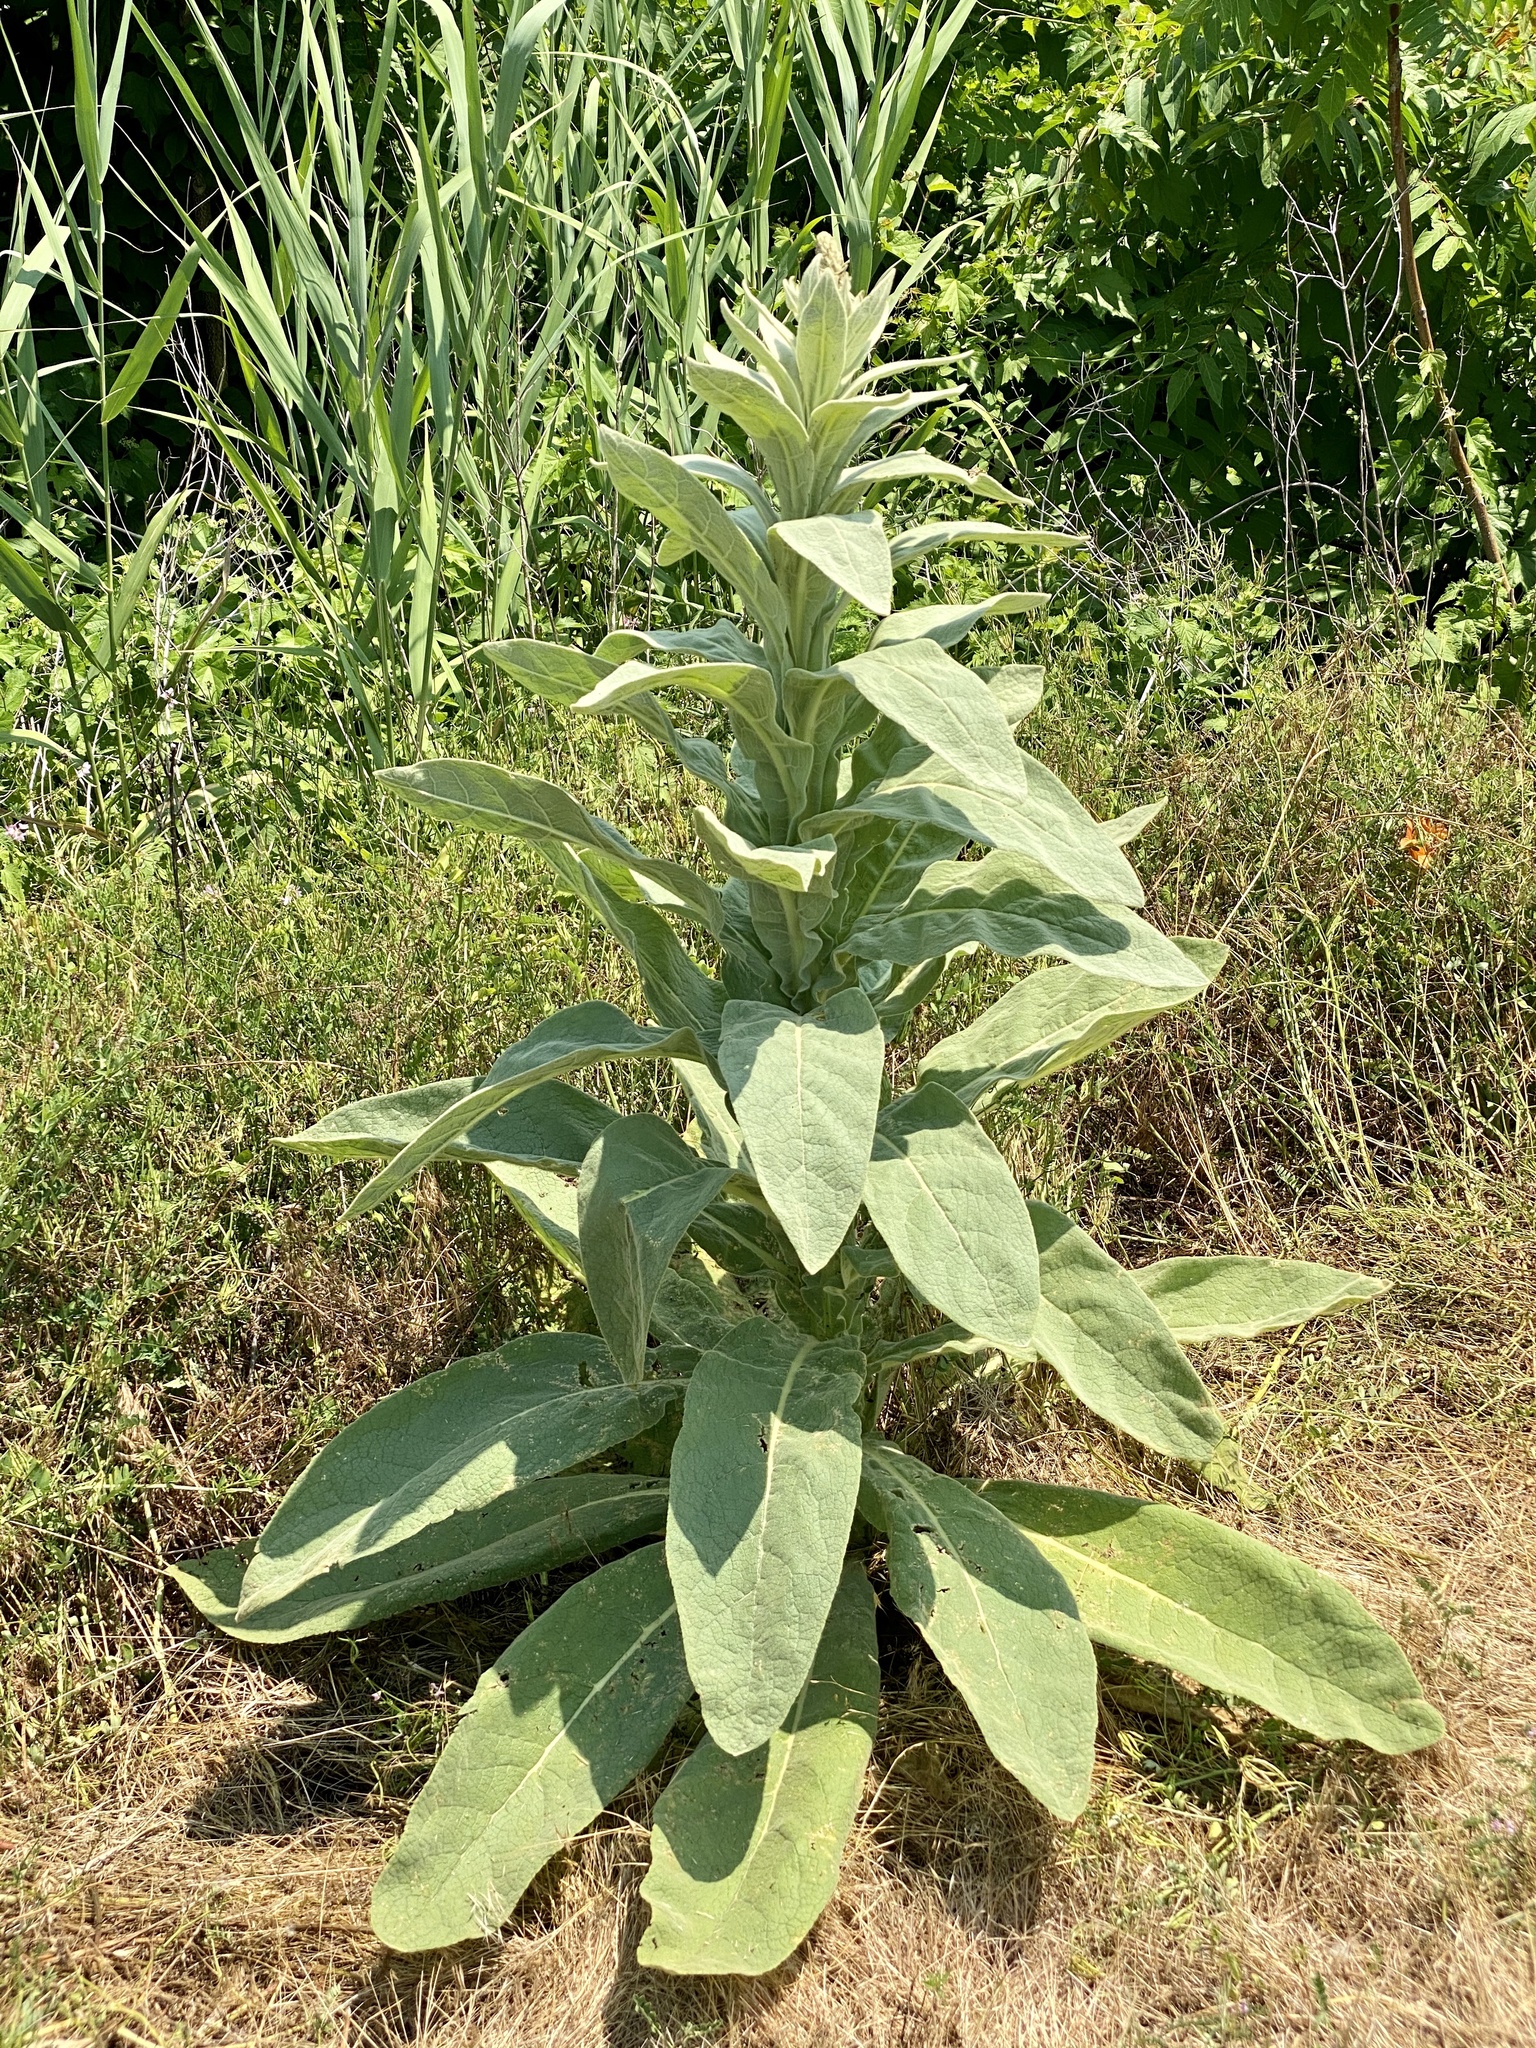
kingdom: Plantae
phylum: Tracheophyta
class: Magnoliopsida
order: Lamiales
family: Scrophulariaceae
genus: Verbascum
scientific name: Verbascum thapsus
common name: Common mullein
